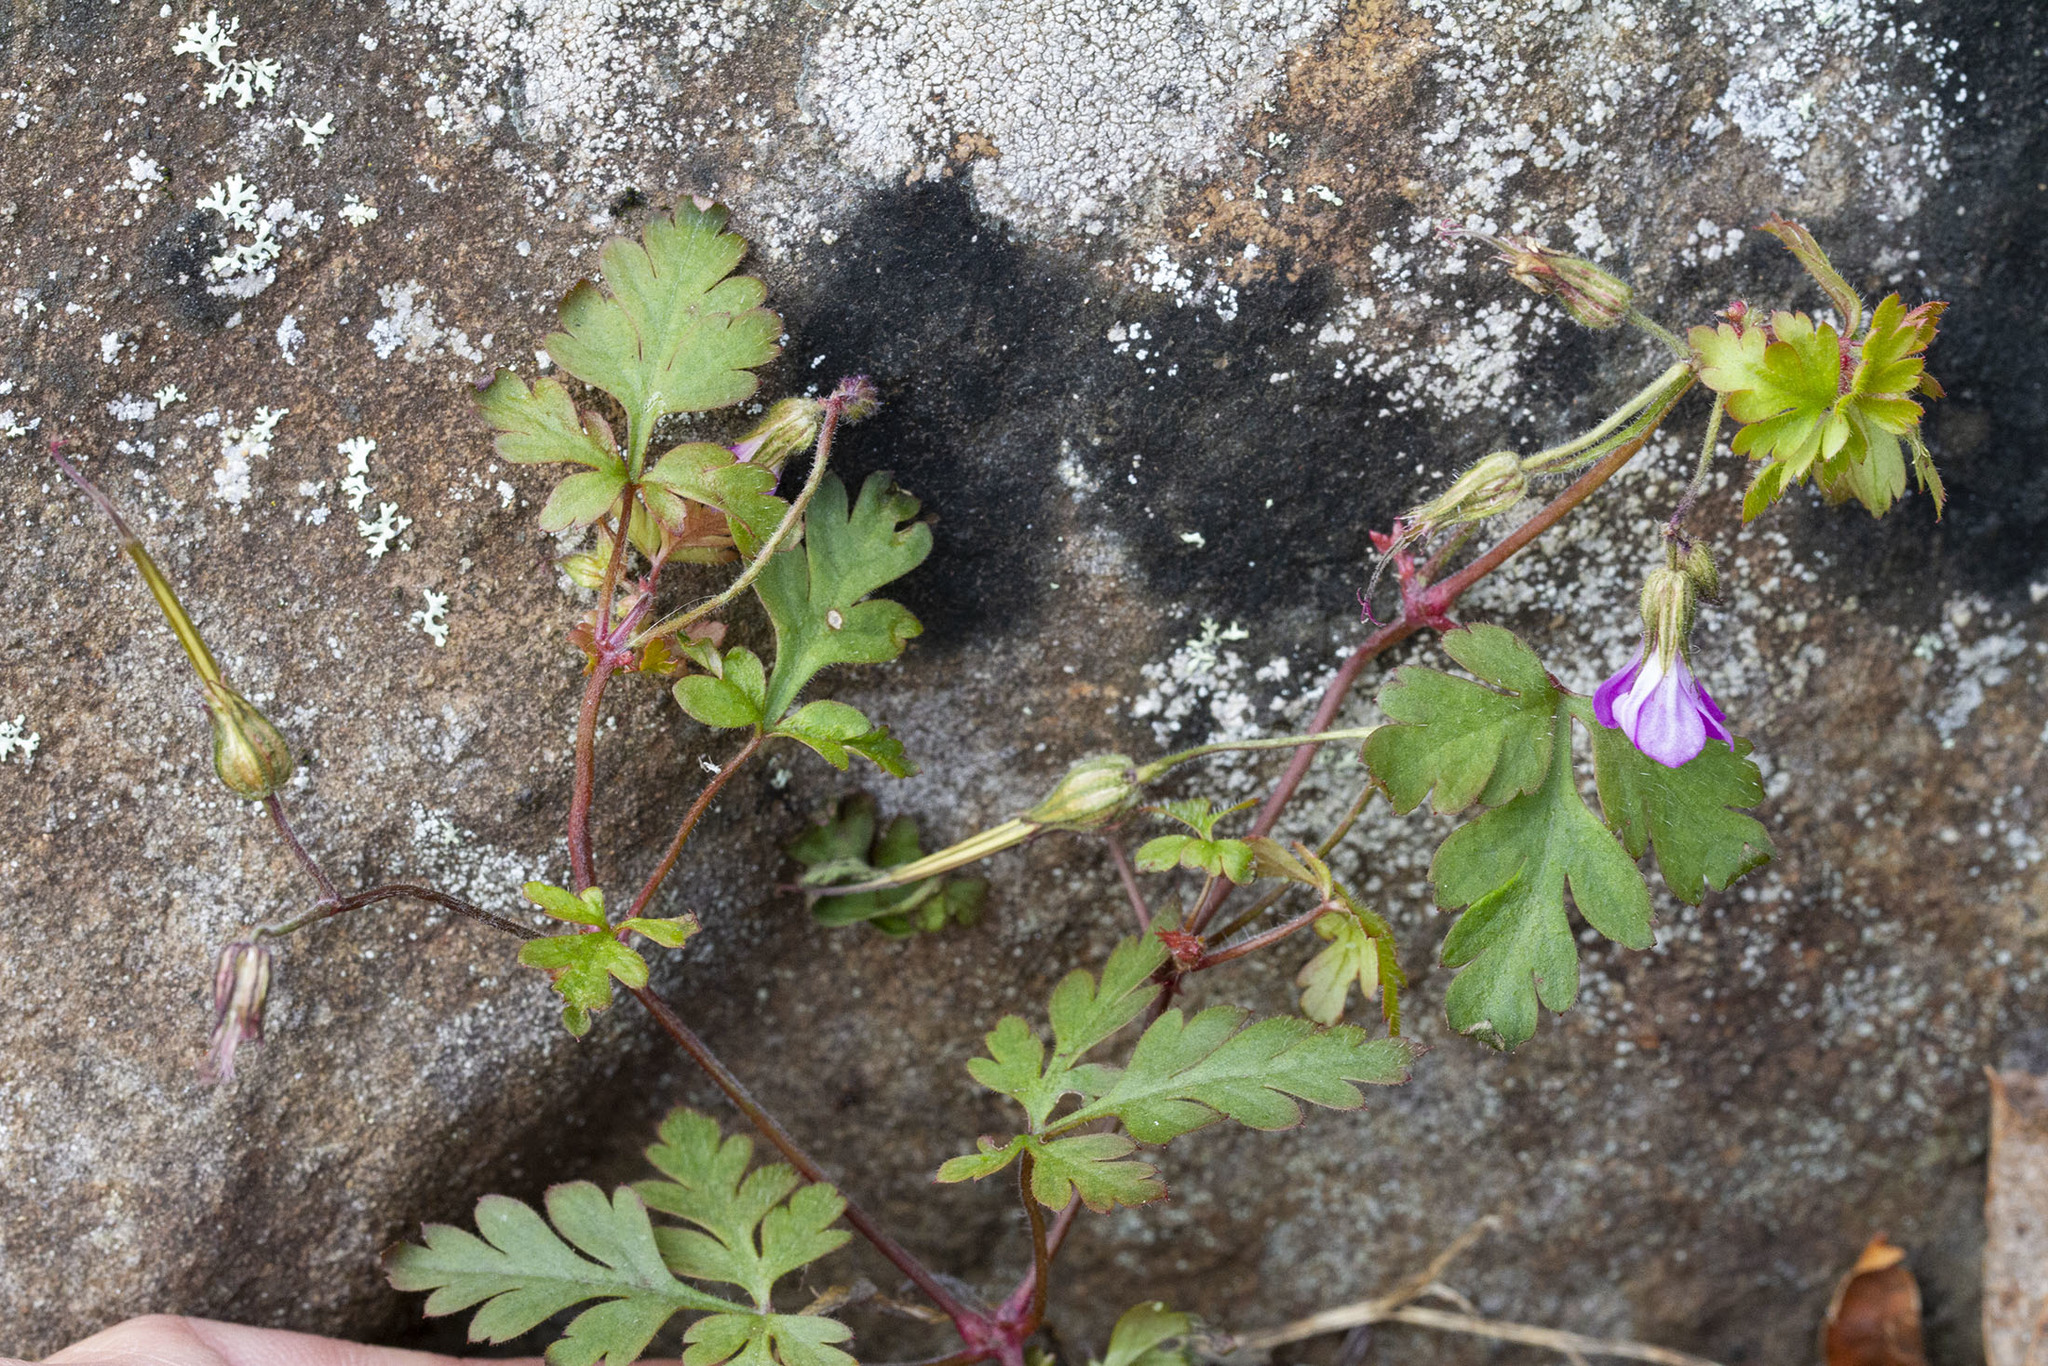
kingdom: Plantae
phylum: Tracheophyta
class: Magnoliopsida
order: Geraniales
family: Geraniaceae
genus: Geranium
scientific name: Geranium robertianum
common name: Herb-robert
